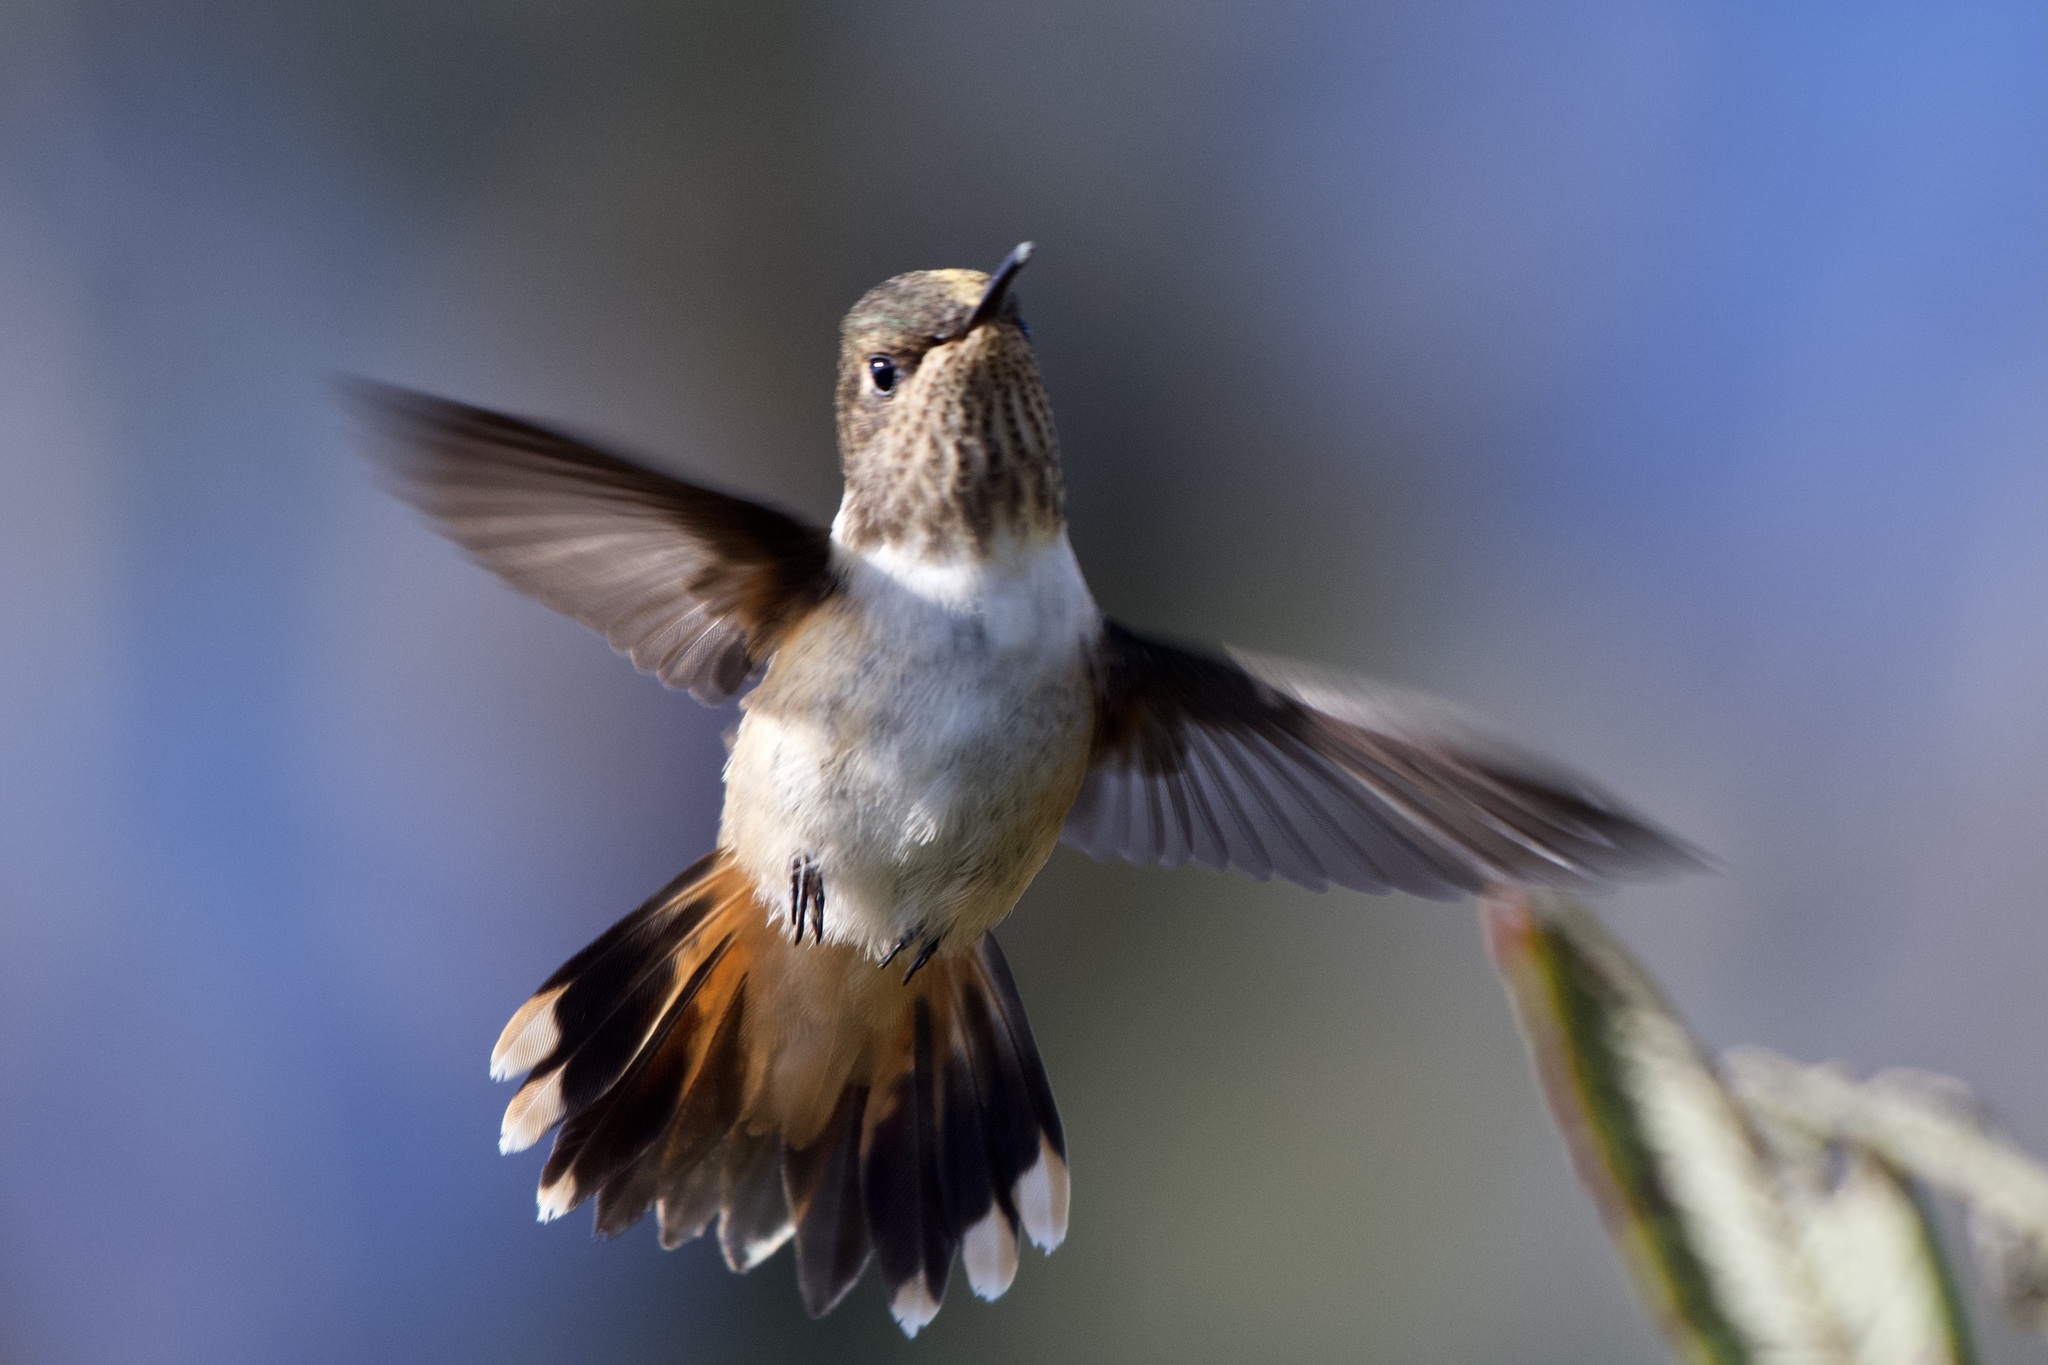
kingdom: Animalia
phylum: Chordata
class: Aves
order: Apodiformes
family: Trochilidae
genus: Selasphorus
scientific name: Selasphorus flammula
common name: Volcano hummingbird
